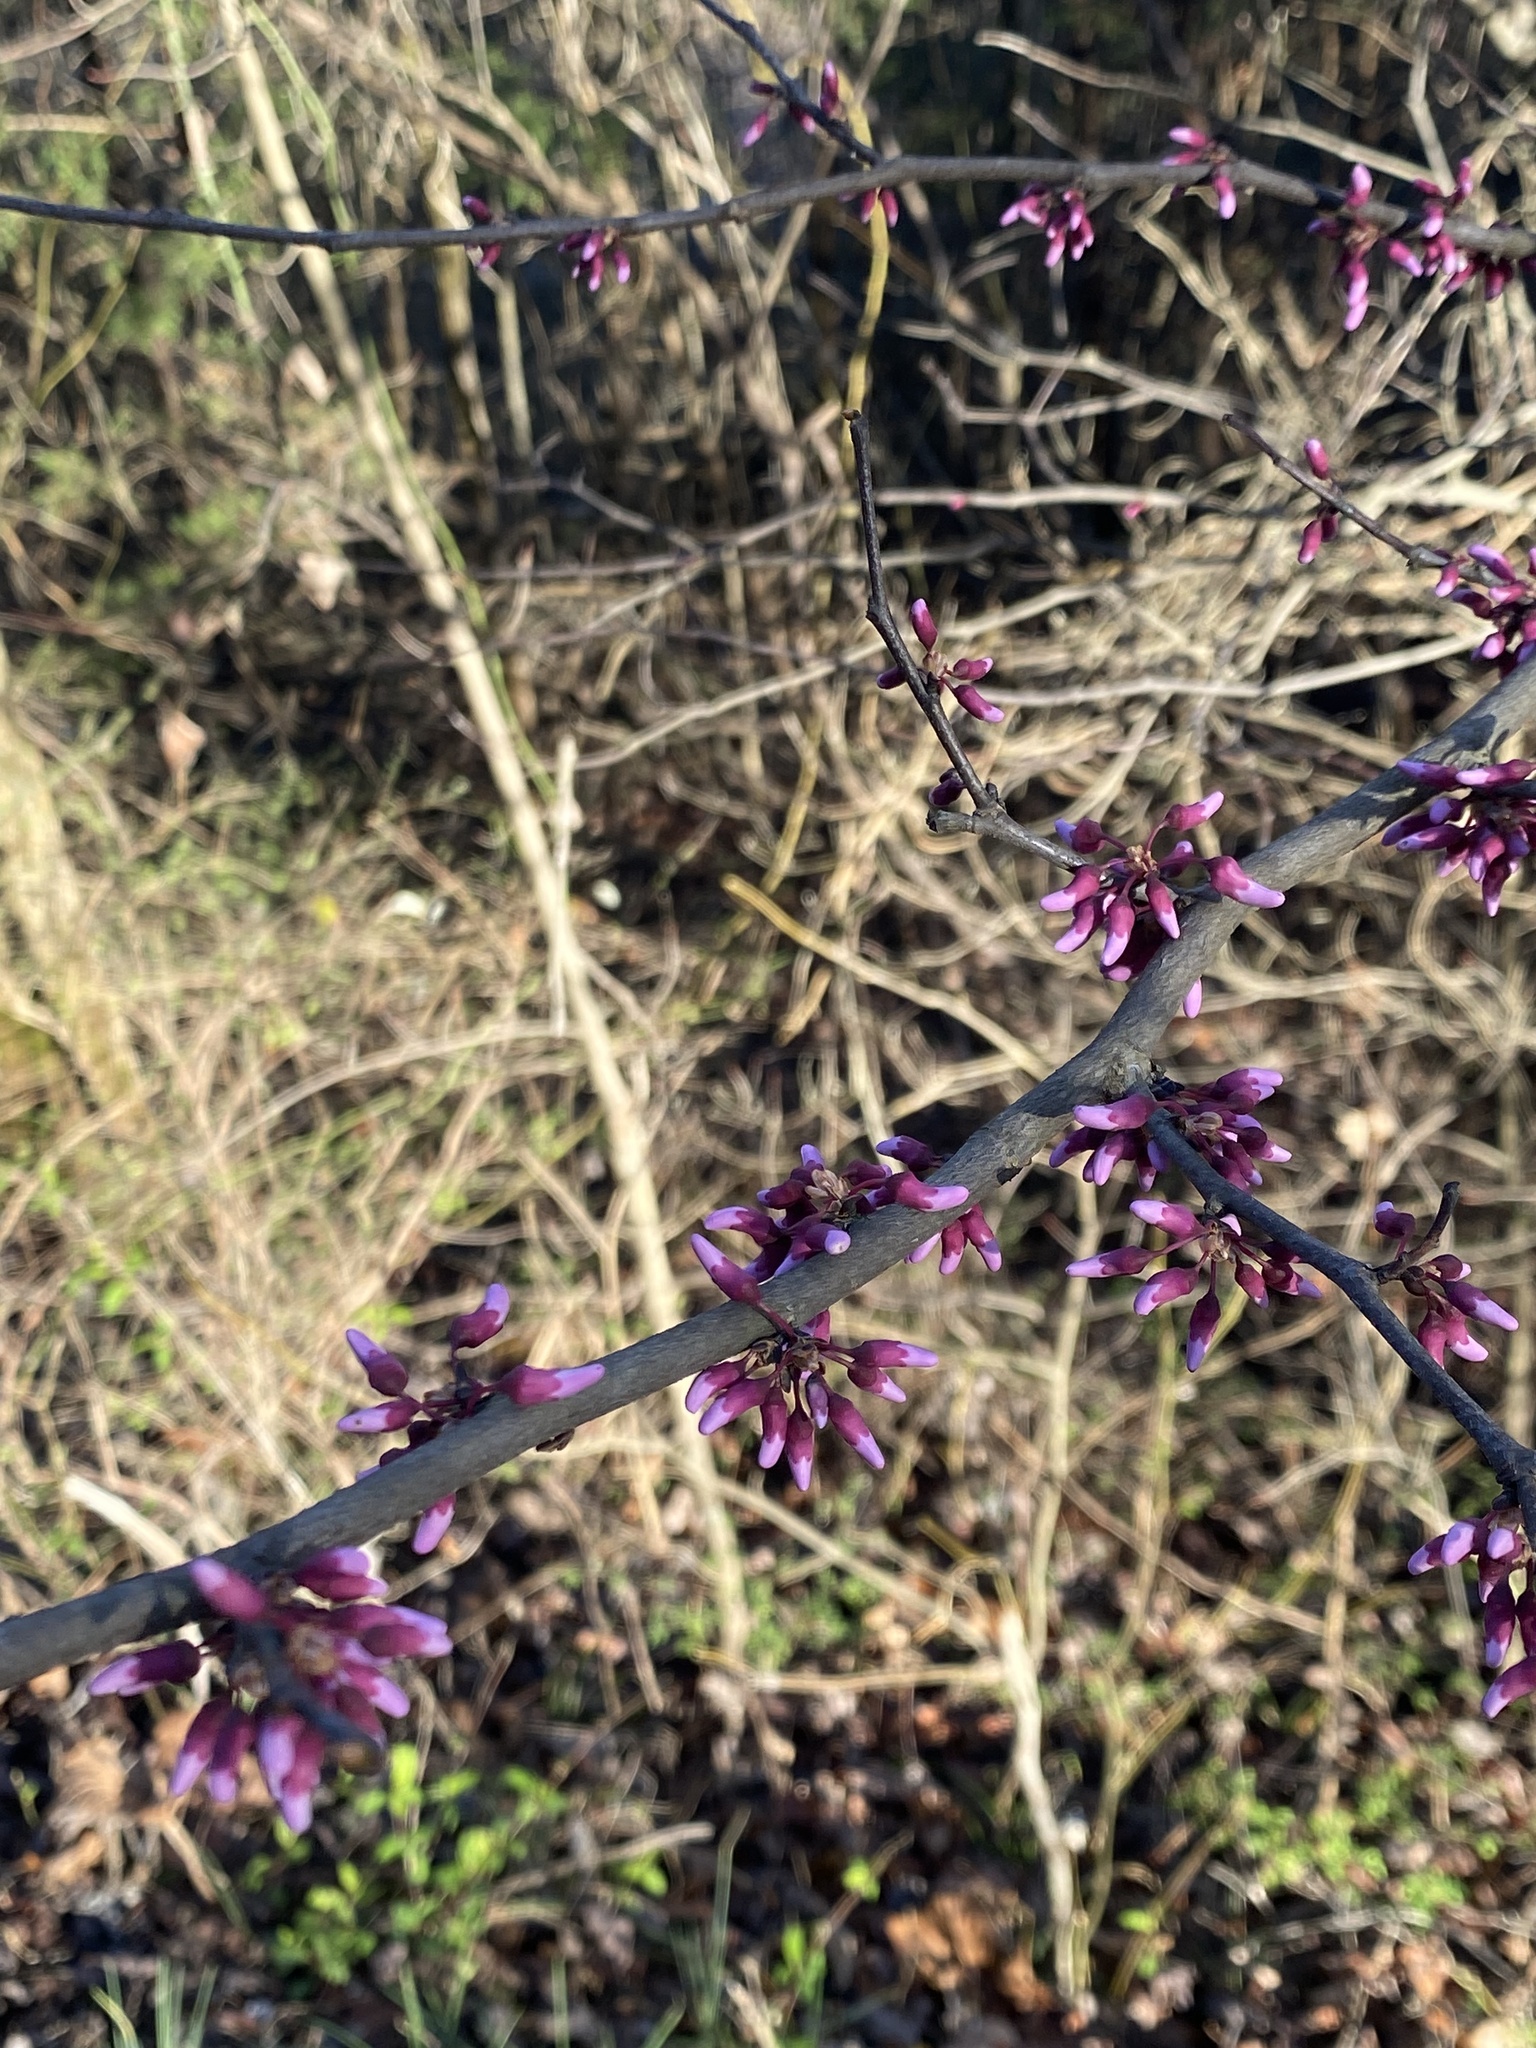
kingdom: Plantae
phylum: Tracheophyta
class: Magnoliopsida
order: Fabales
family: Fabaceae
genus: Cercis
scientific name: Cercis canadensis
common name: Eastern redbud
